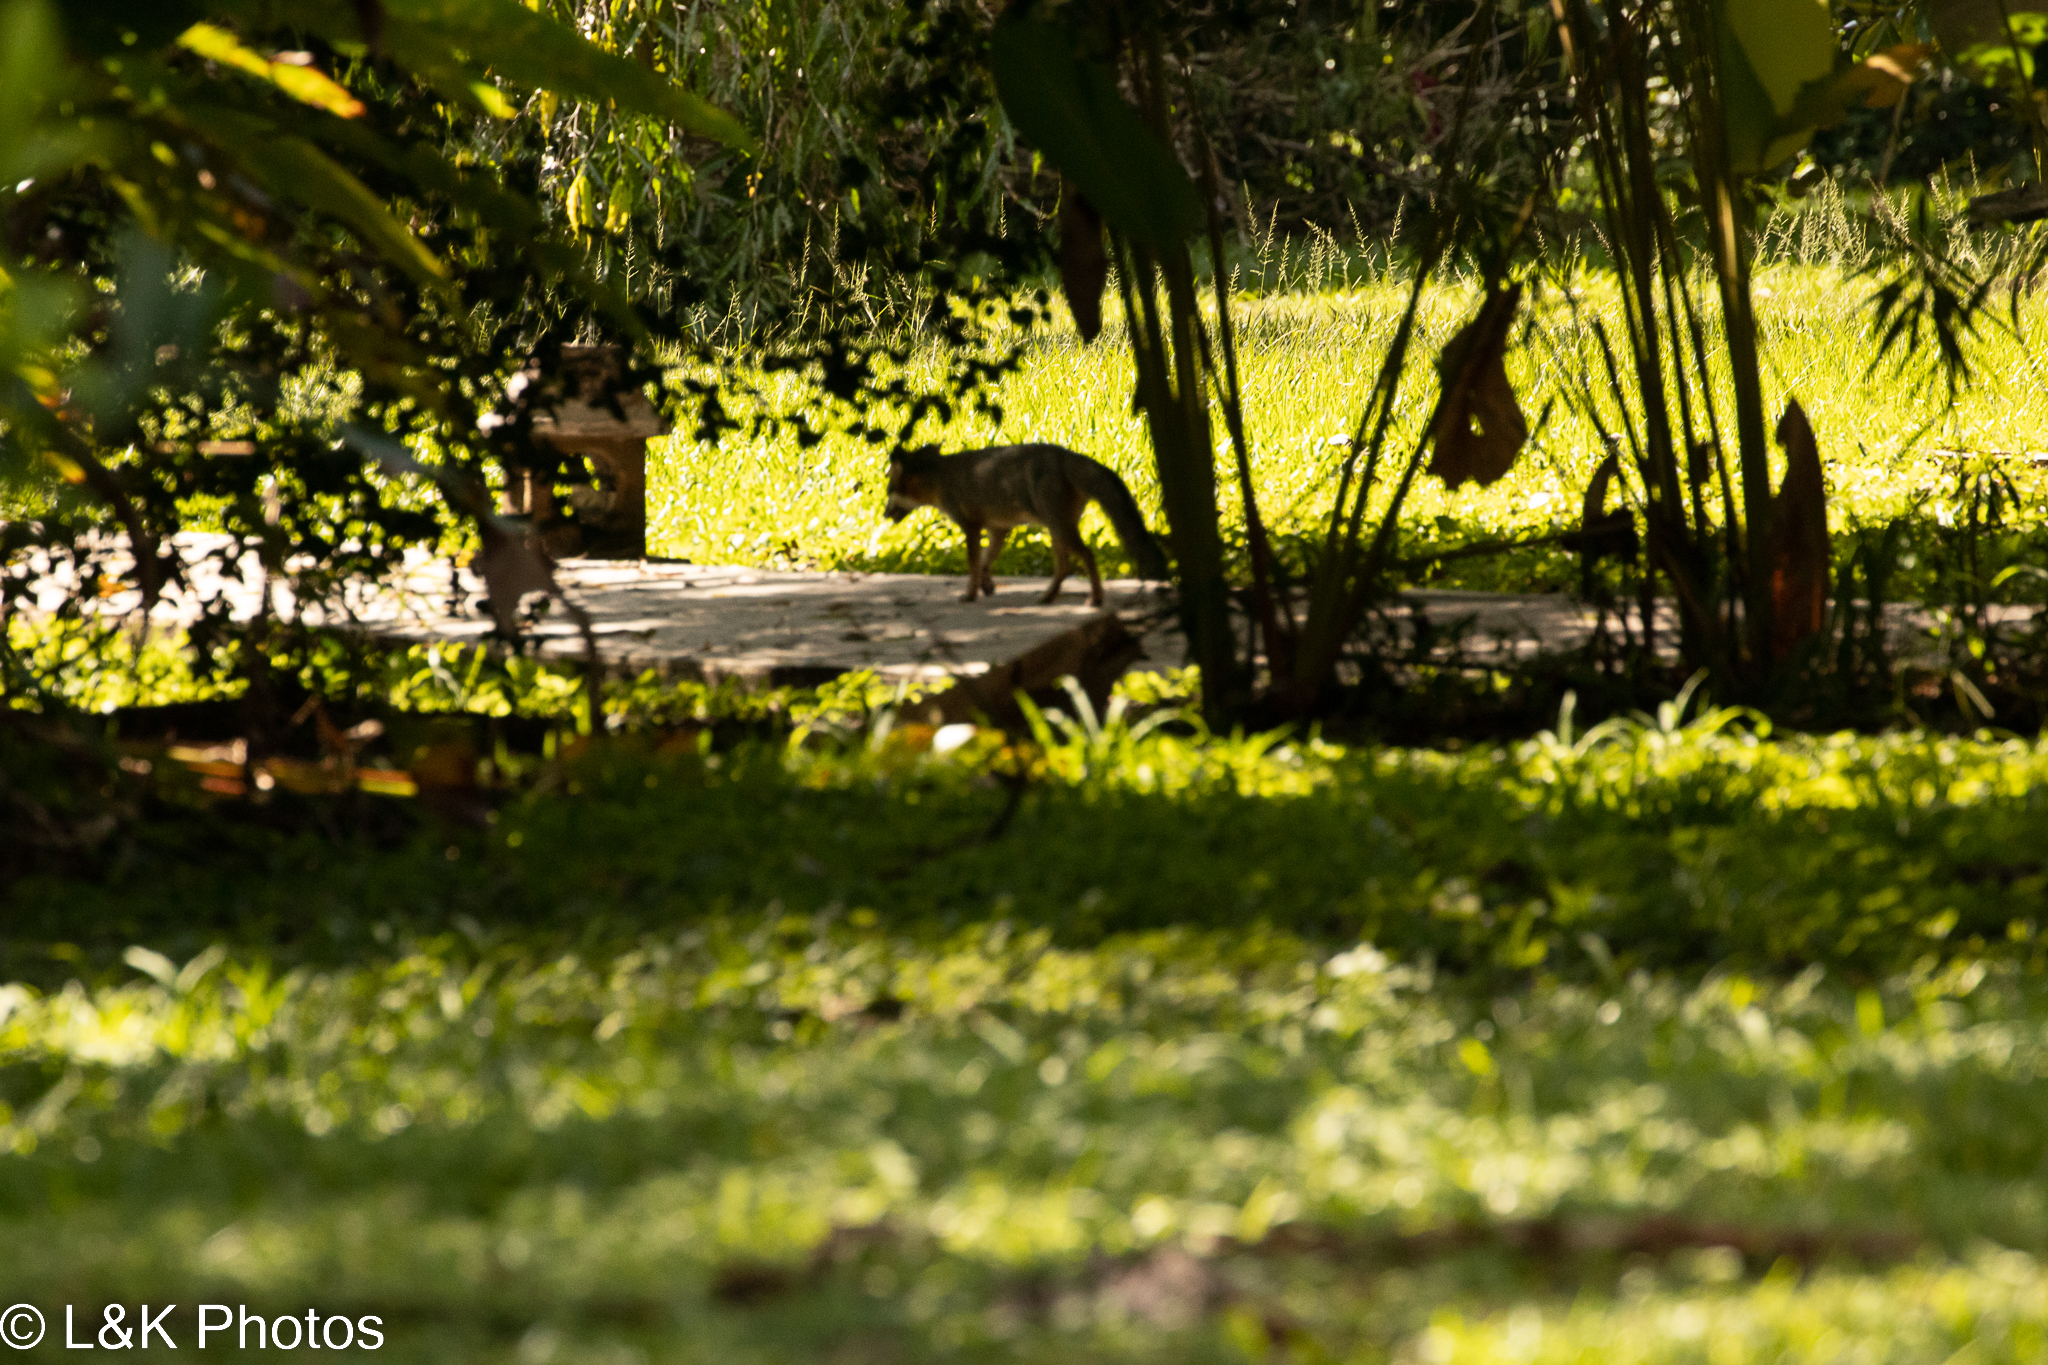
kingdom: Animalia
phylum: Chordata
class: Mammalia
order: Carnivora
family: Canidae
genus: Urocyon
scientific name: Urocyon cinereoargenteus
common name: Gray fox
